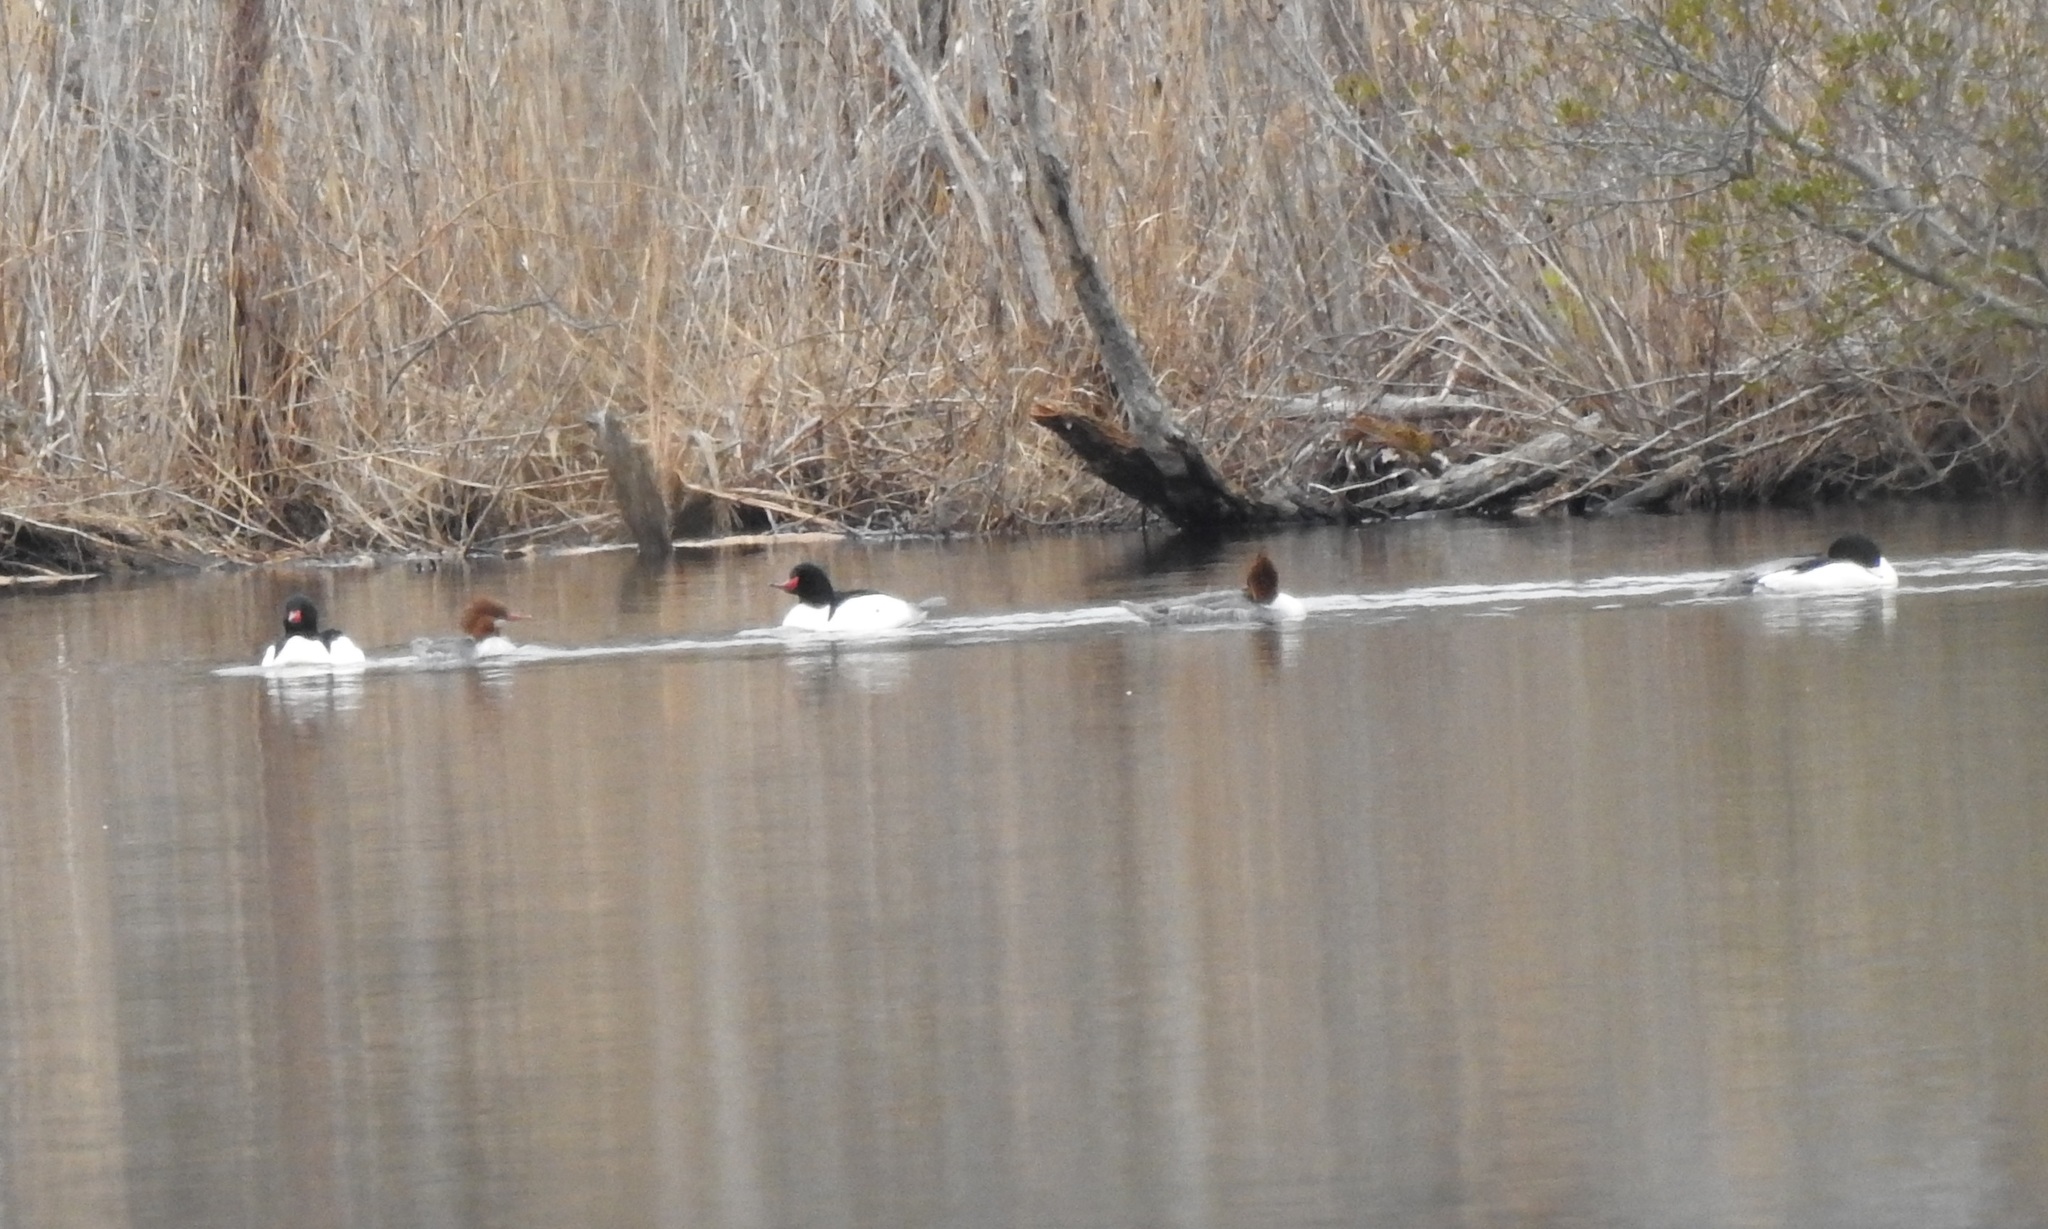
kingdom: Animalia
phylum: Chordata
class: Aves
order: Anseriformes
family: Anatidae
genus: Mergus
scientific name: Mergus merganser
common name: Common merganser
